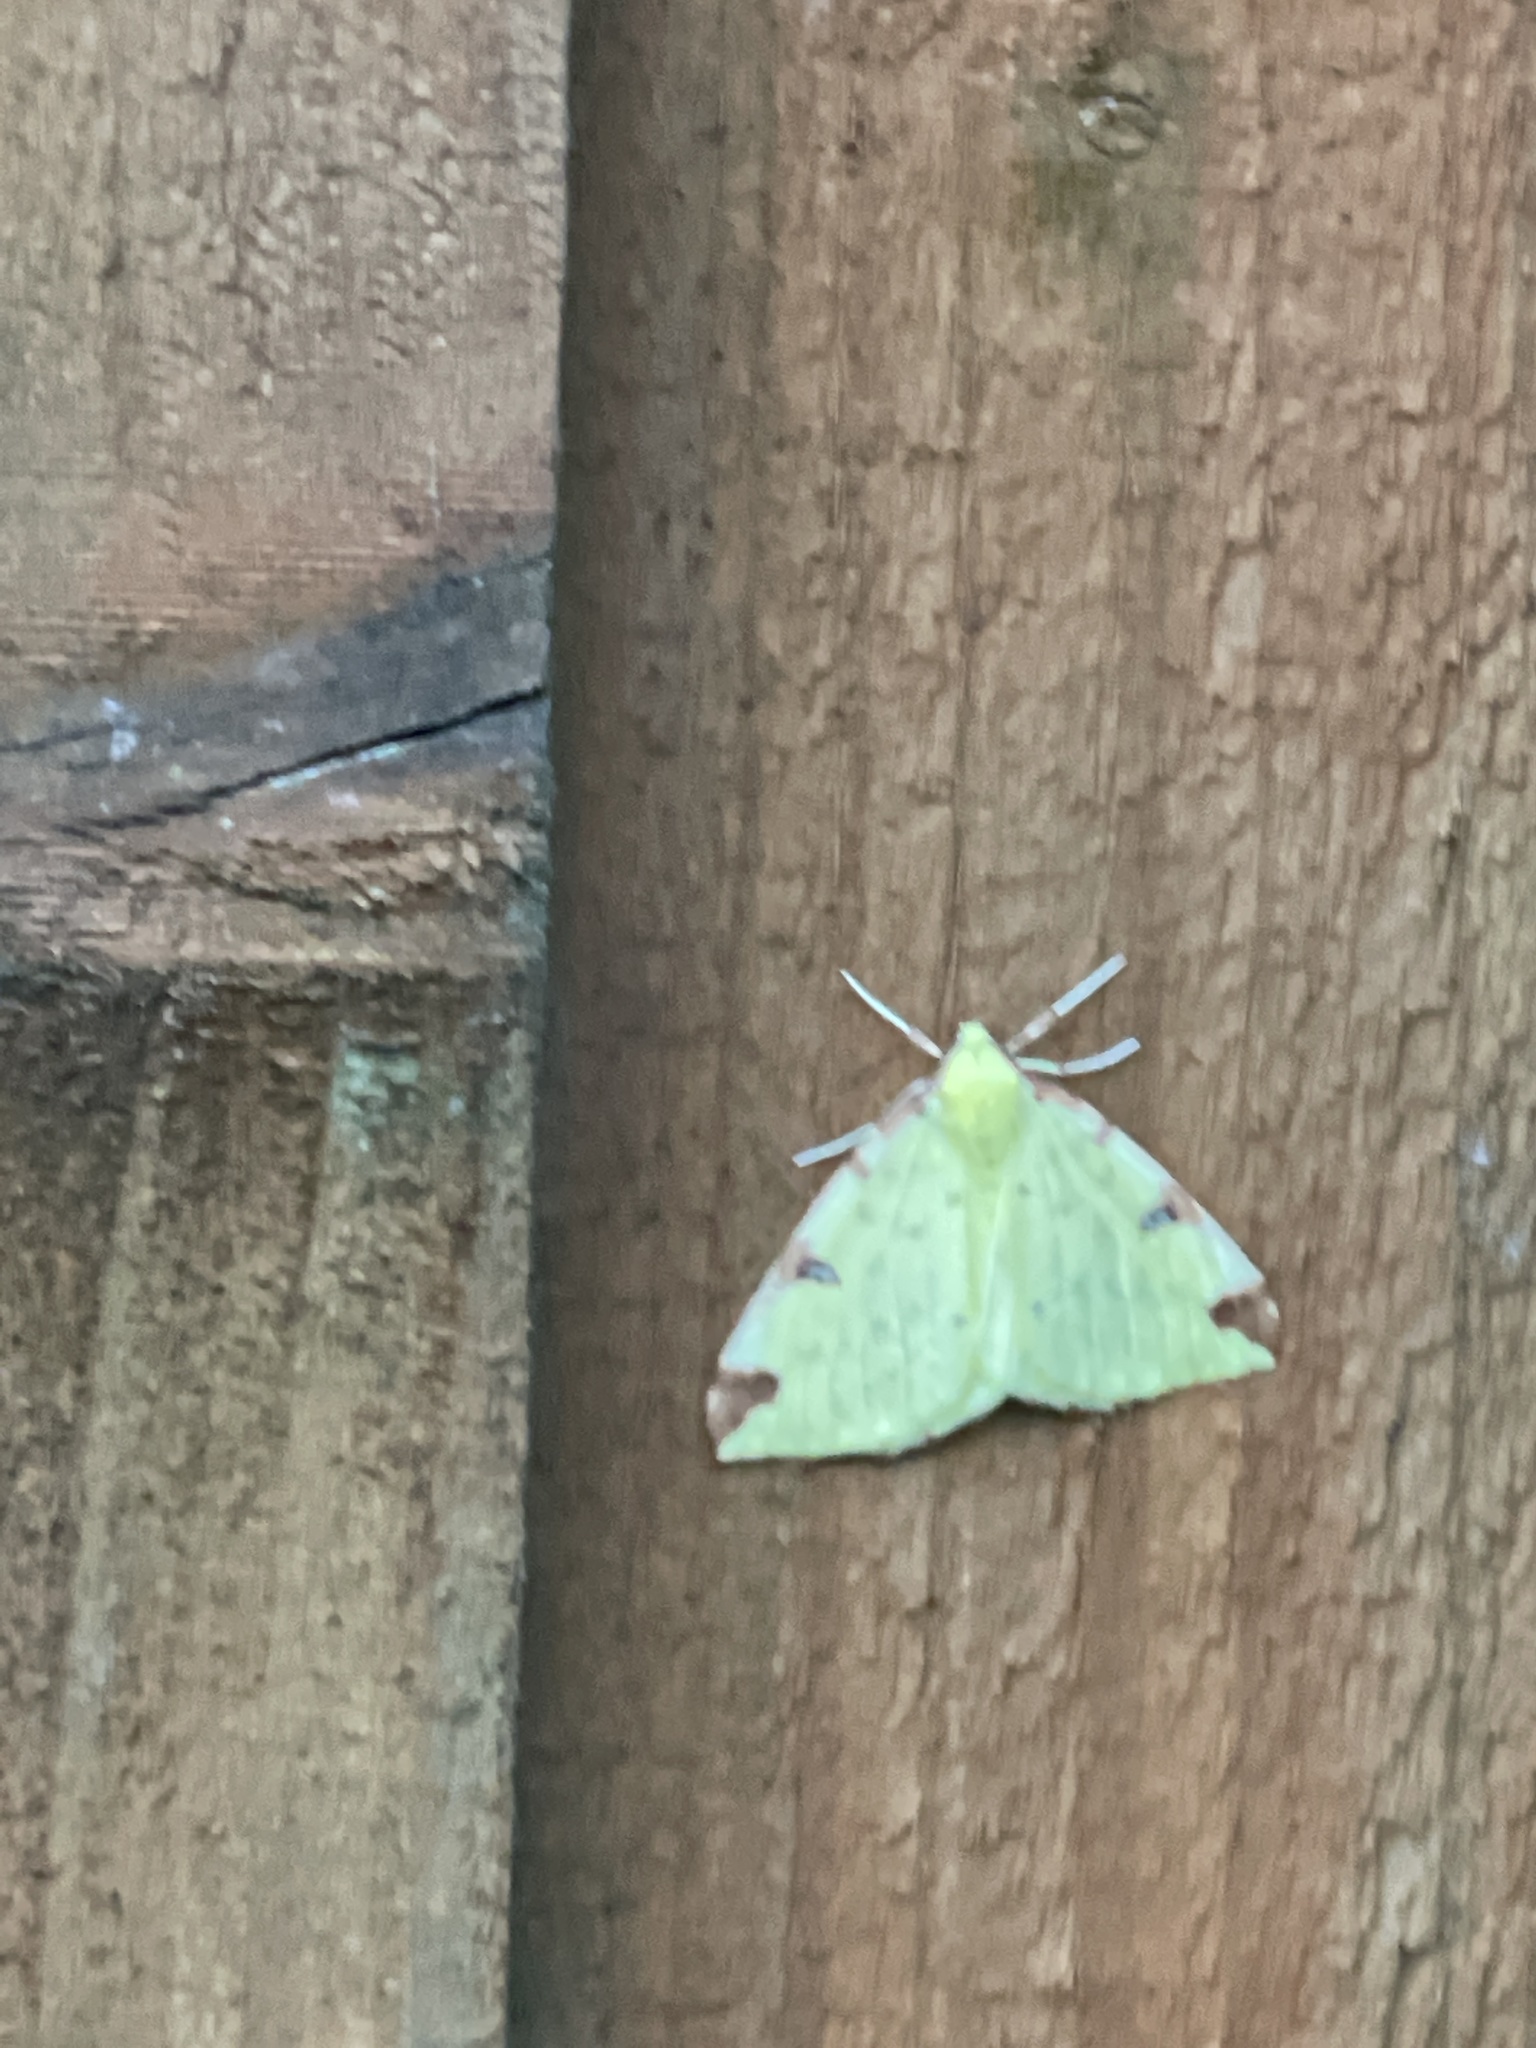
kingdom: Animalia
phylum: Arthropoda
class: Insecta
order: Lepidoptera
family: Geometridae
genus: Opisthograptis
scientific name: Opisthograptis luteolata
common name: Brimstone moth
